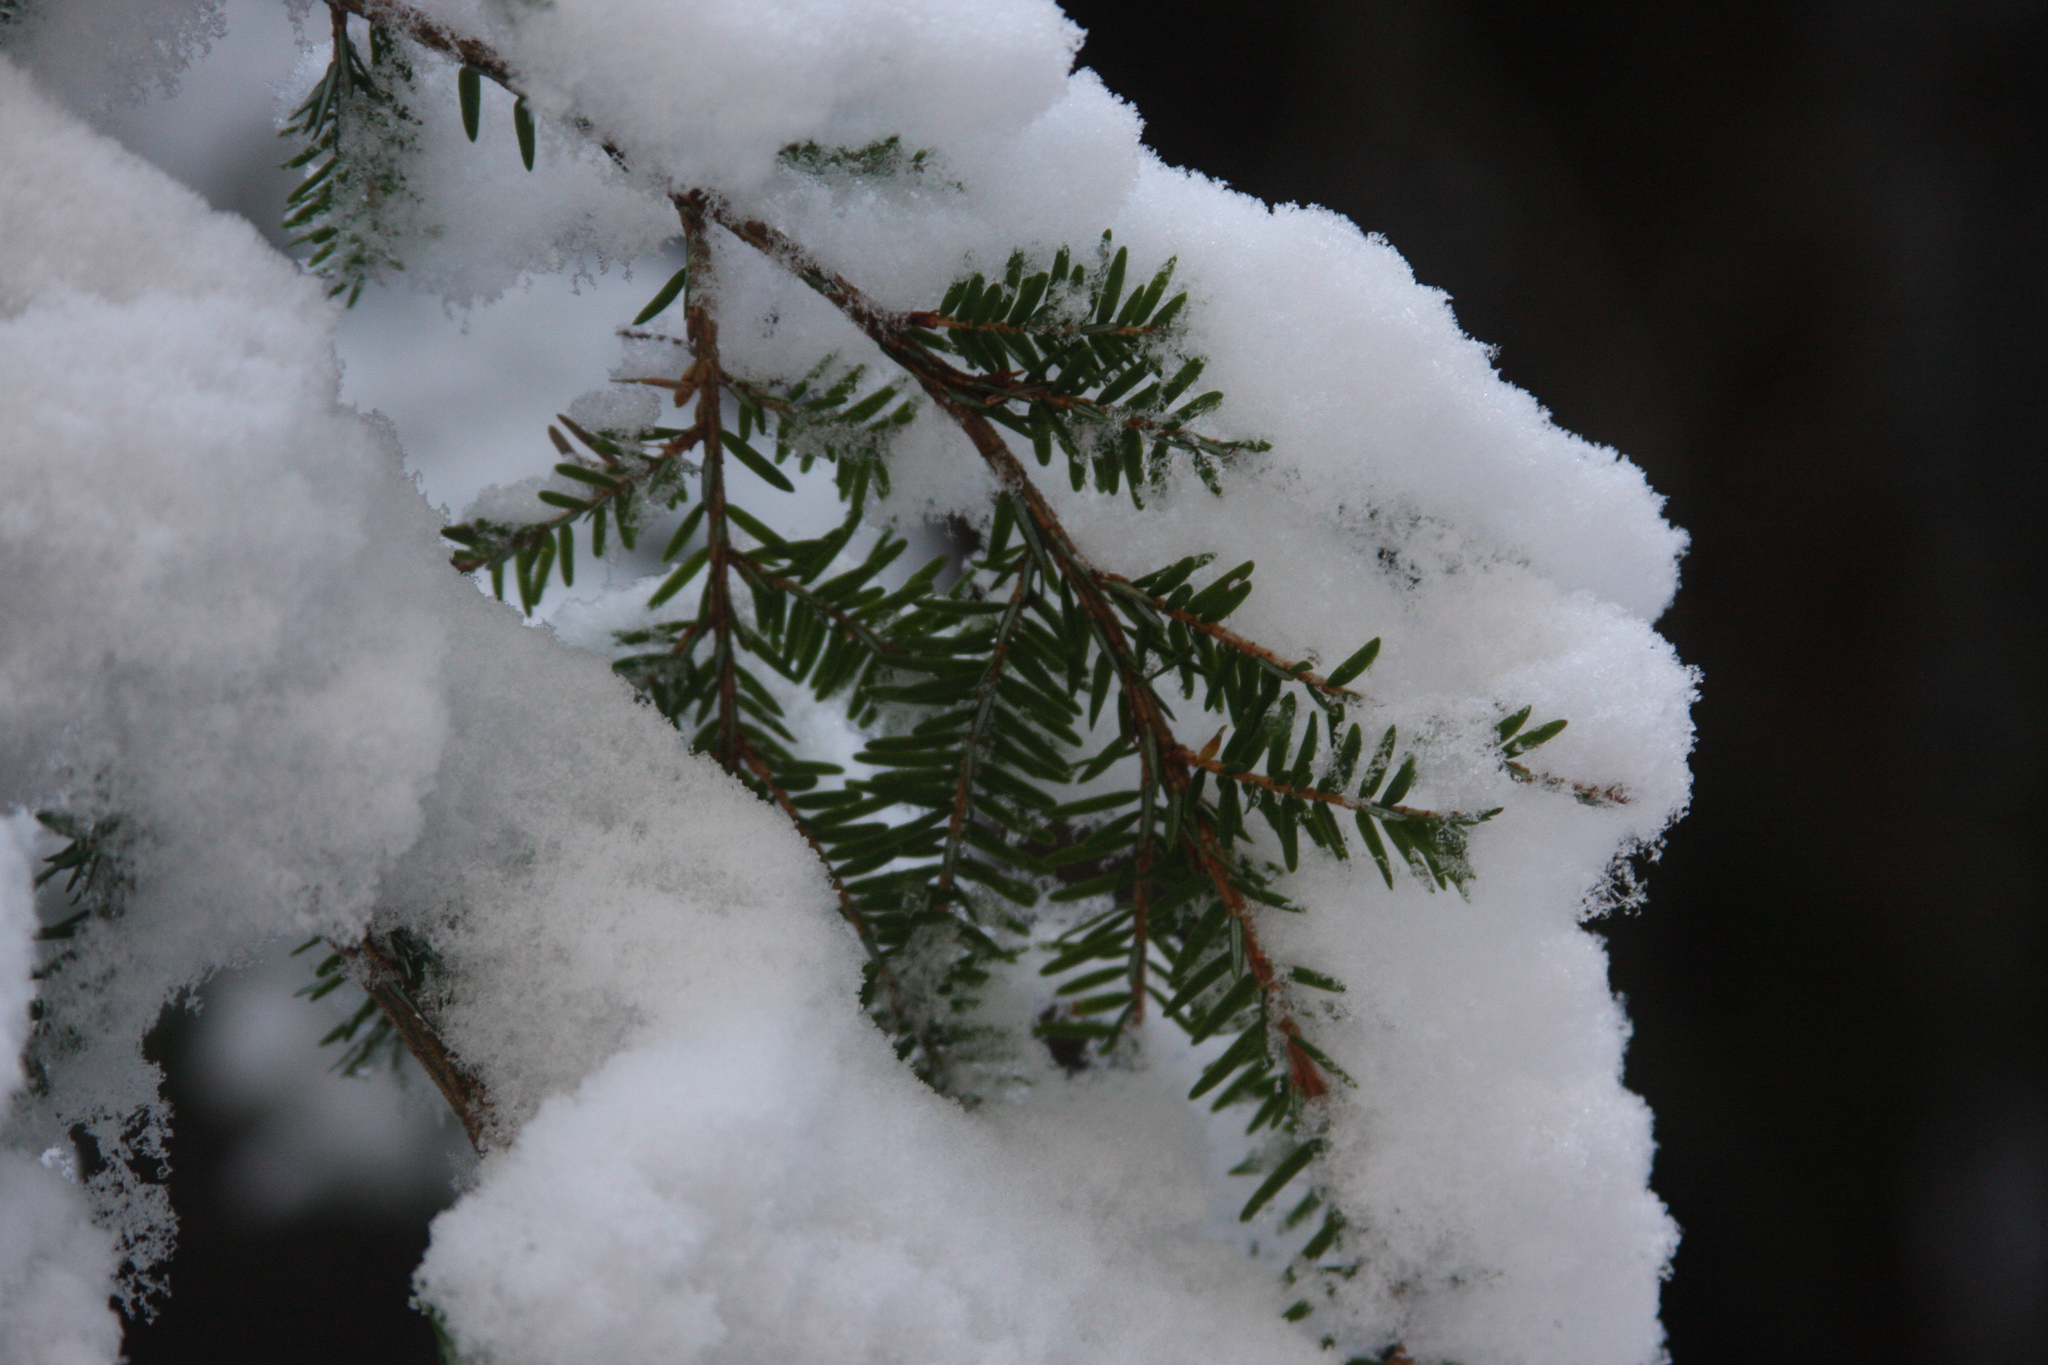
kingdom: Plantae
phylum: Tracheophyta
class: Pinopsida
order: Pinales
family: Pinaceae
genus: Tsuga
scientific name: Tsuga canadensis
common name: Eastern hemlock
